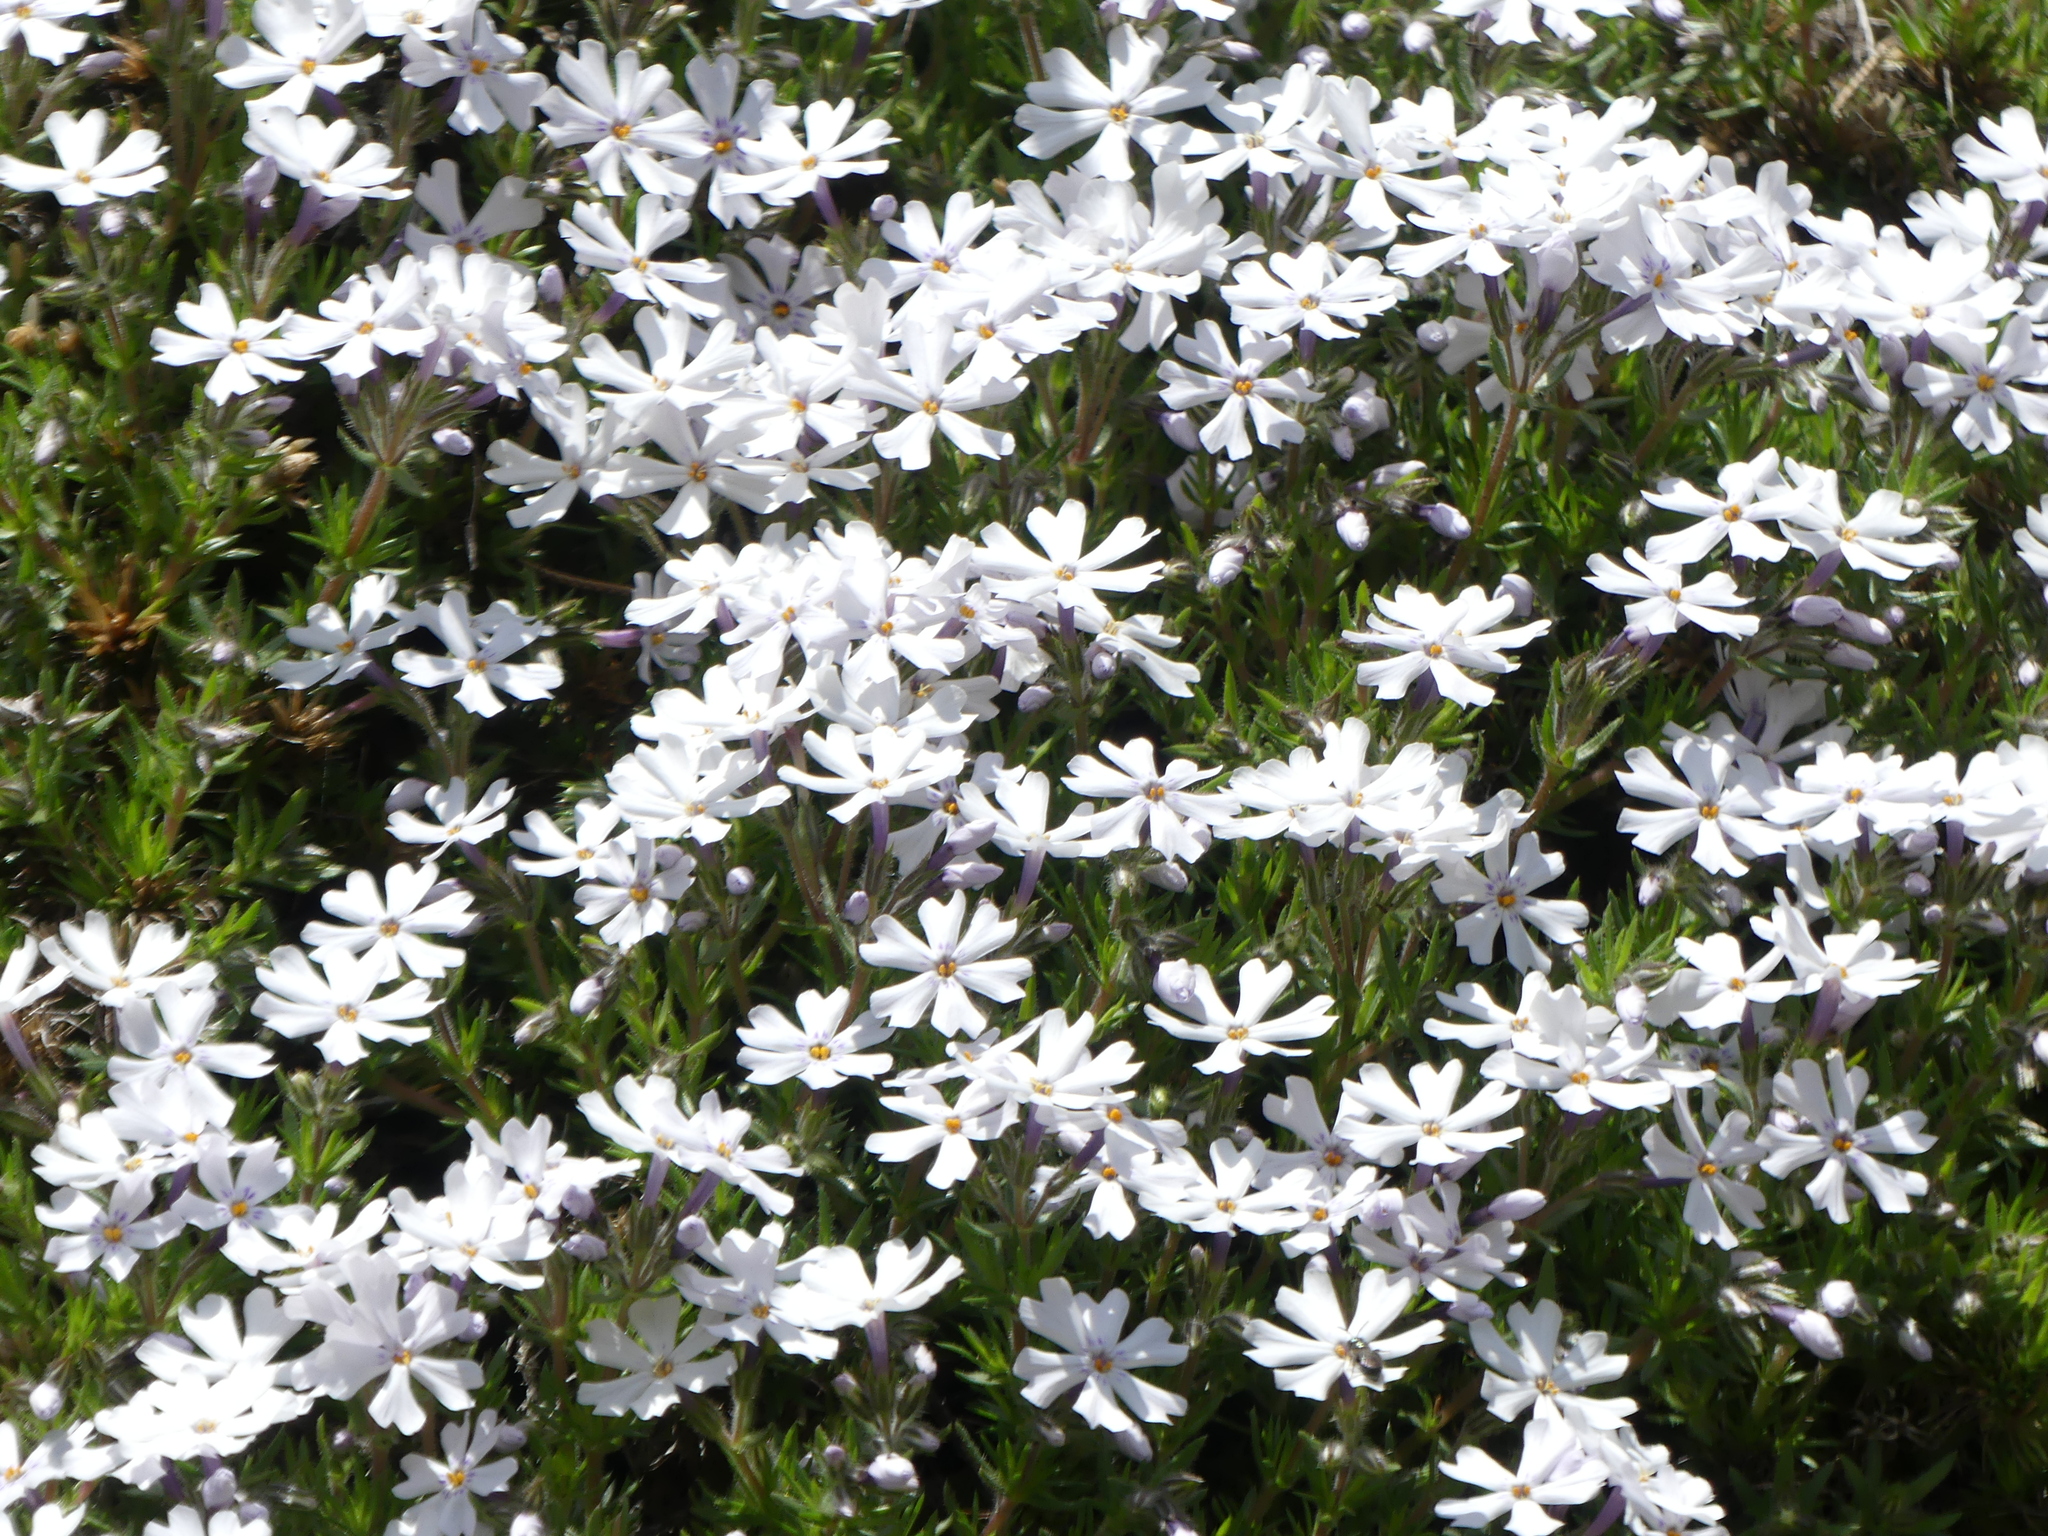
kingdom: Plantae
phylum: Tracheophyta
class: Magnoliopsida
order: Ericales
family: Polemoniaceae
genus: Phlox
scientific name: Phlox subulata
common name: Moss phlox
